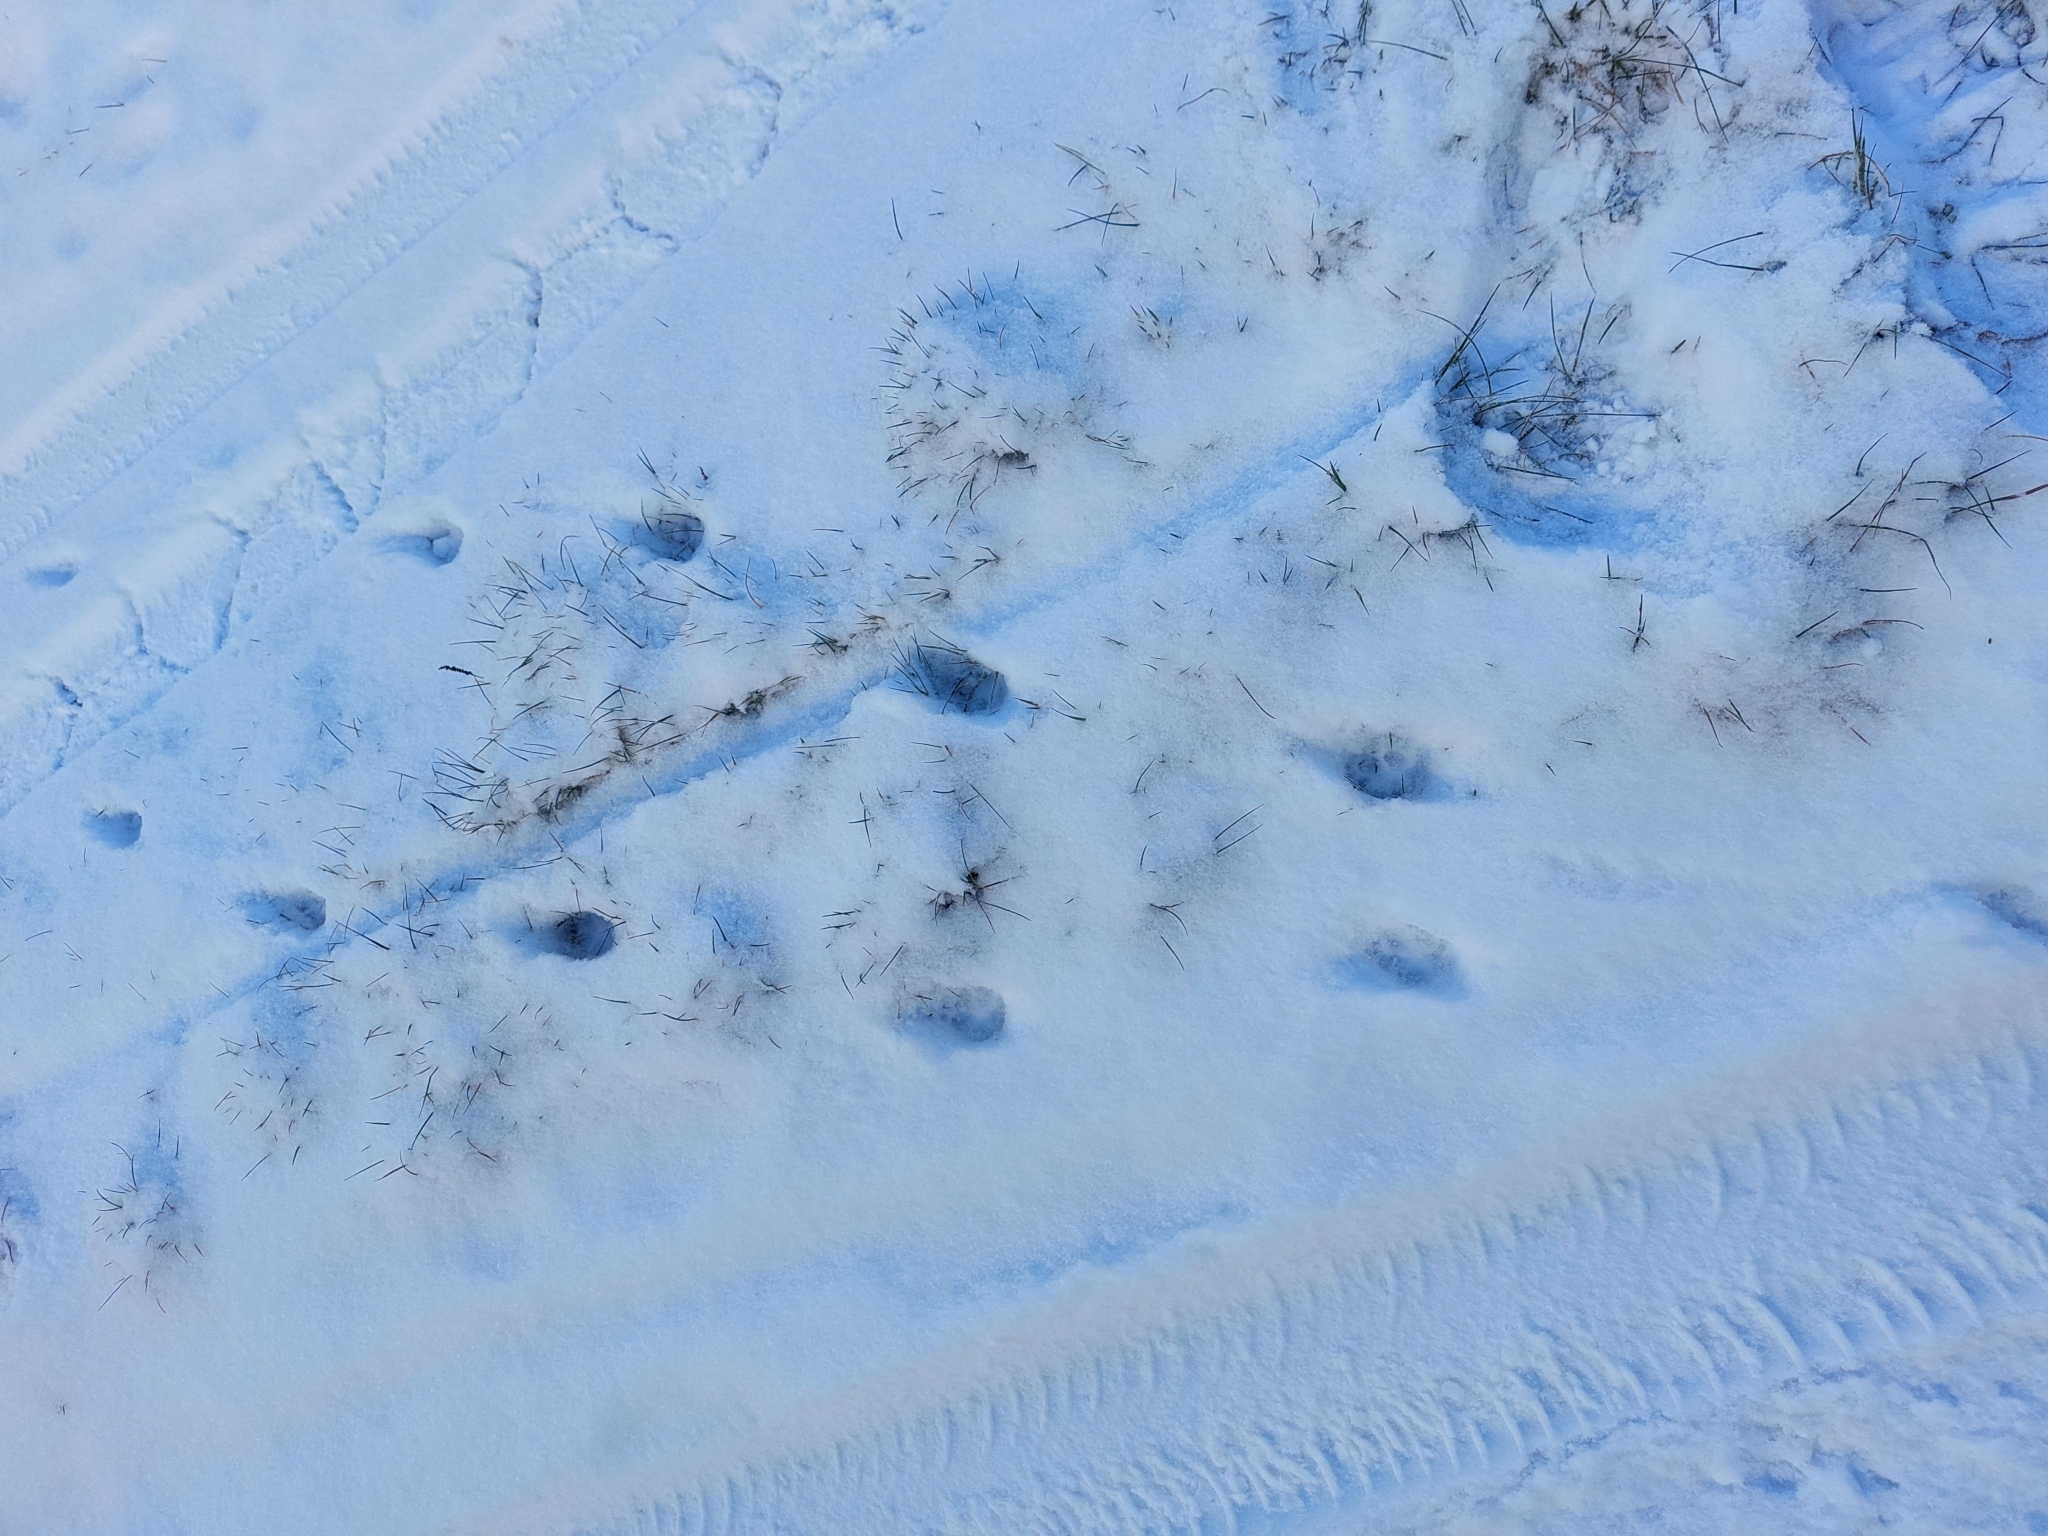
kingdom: Animalia
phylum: Chordata
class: Mammalia
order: Carnivora
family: Canidae
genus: Vulpes
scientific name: Vulpes vulpes
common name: Red fox
